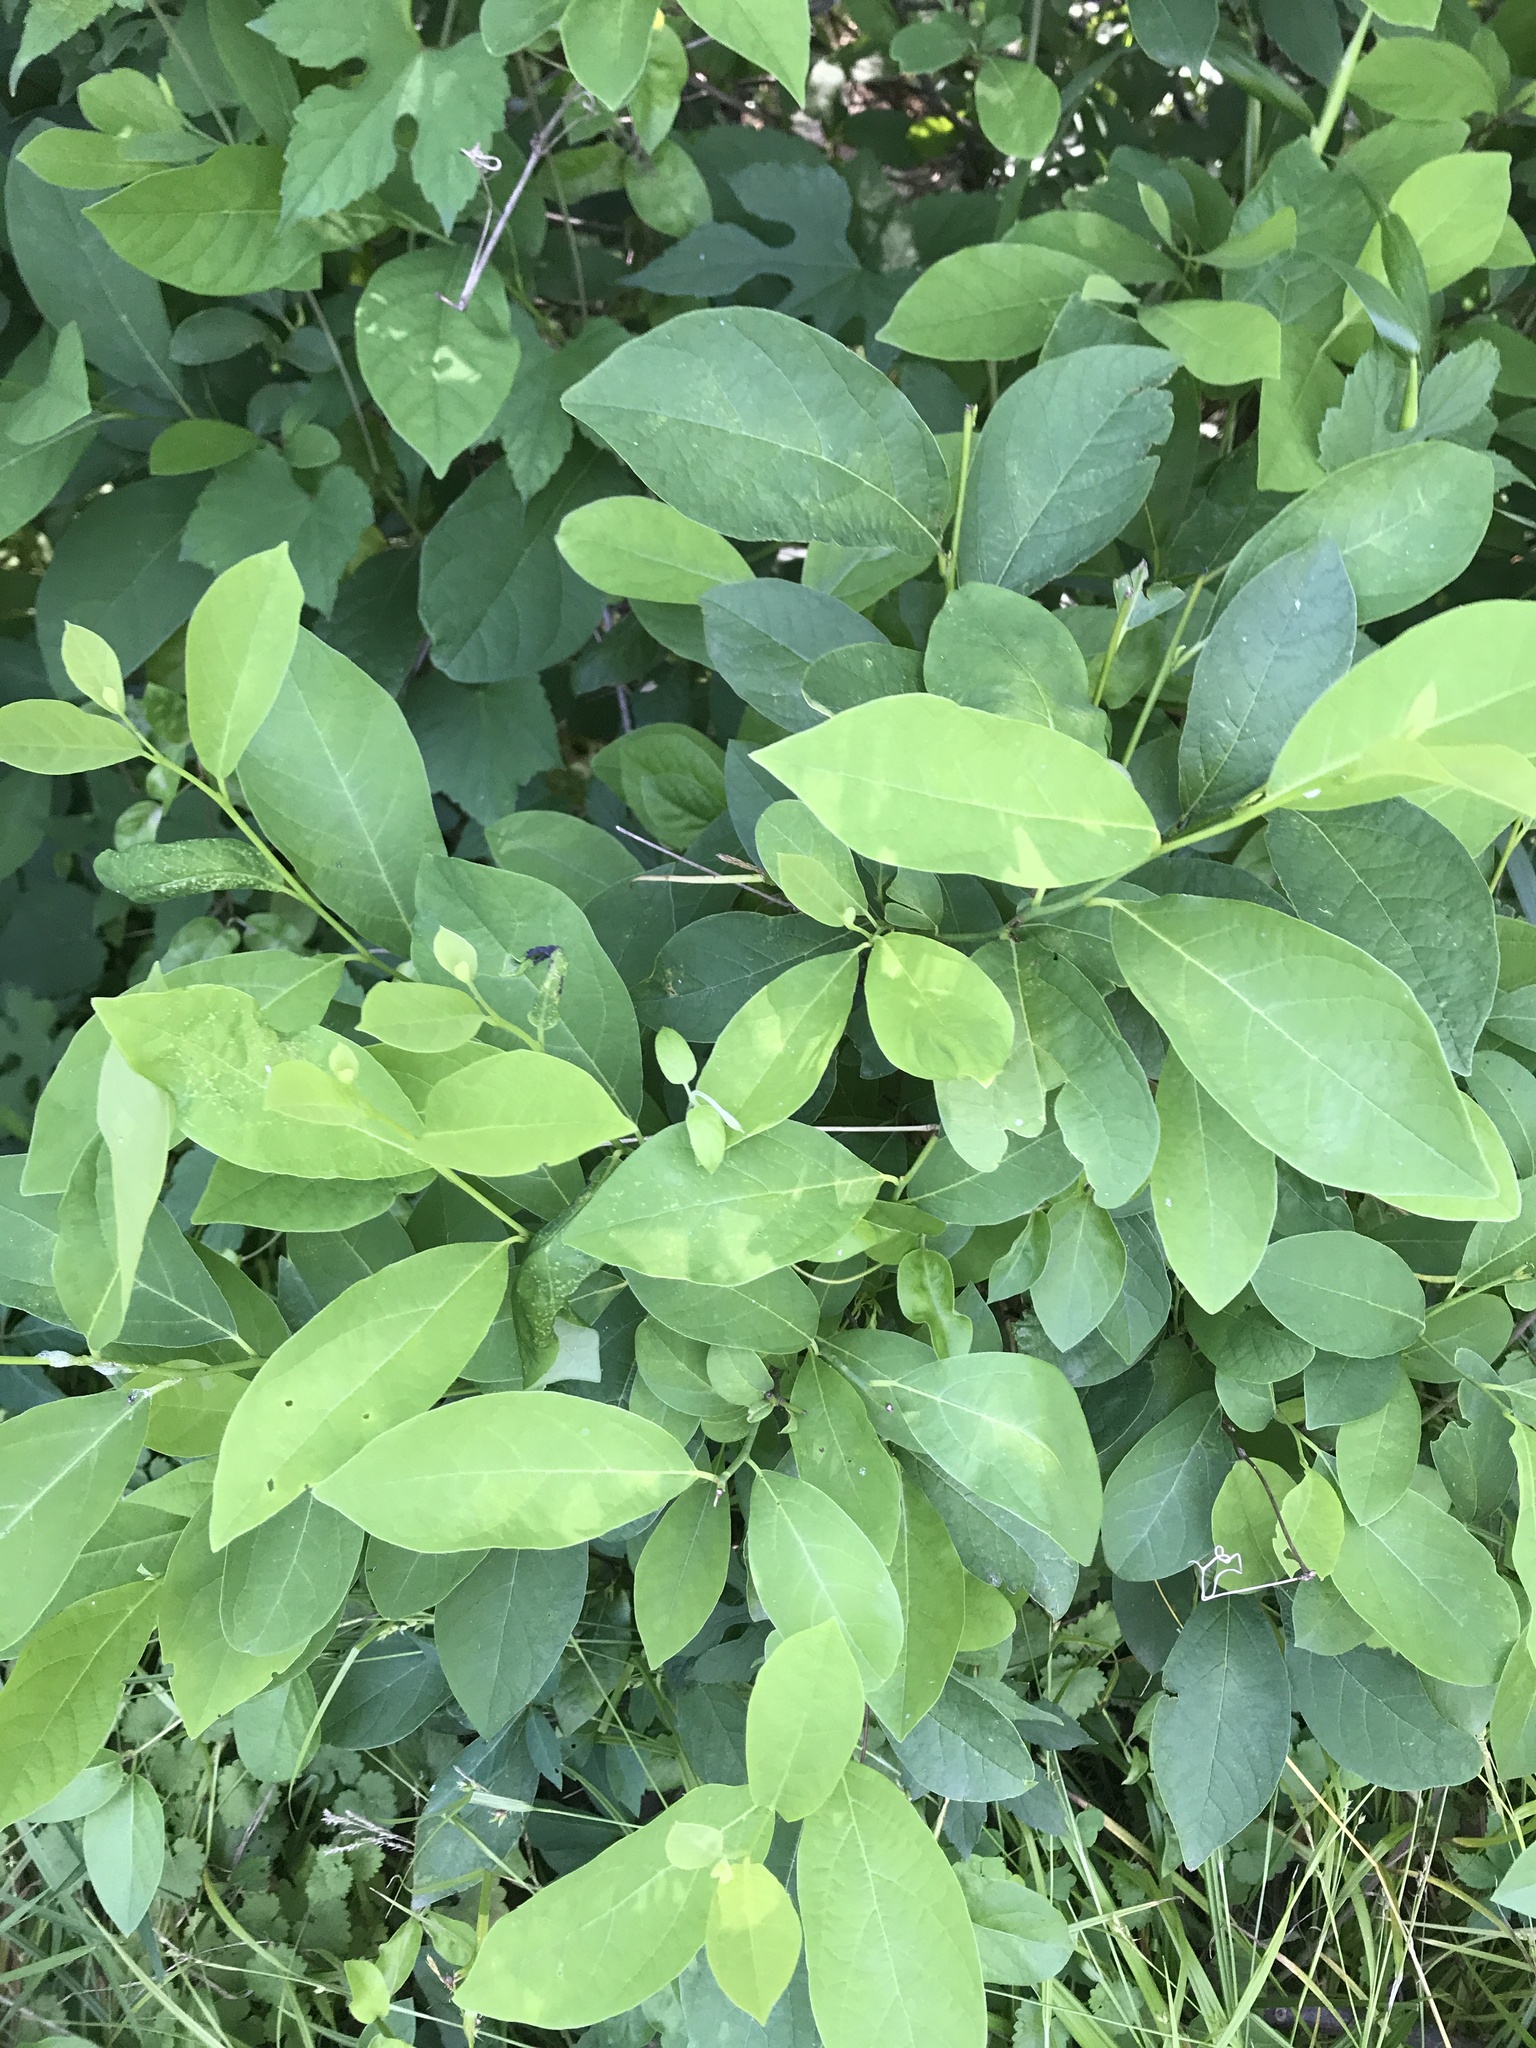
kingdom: Plantae
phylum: Tracheophyta
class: Magnoliopsida
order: Laurales
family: Lauraceae
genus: Lindera
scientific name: Lindera benzoin
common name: Spicebush
